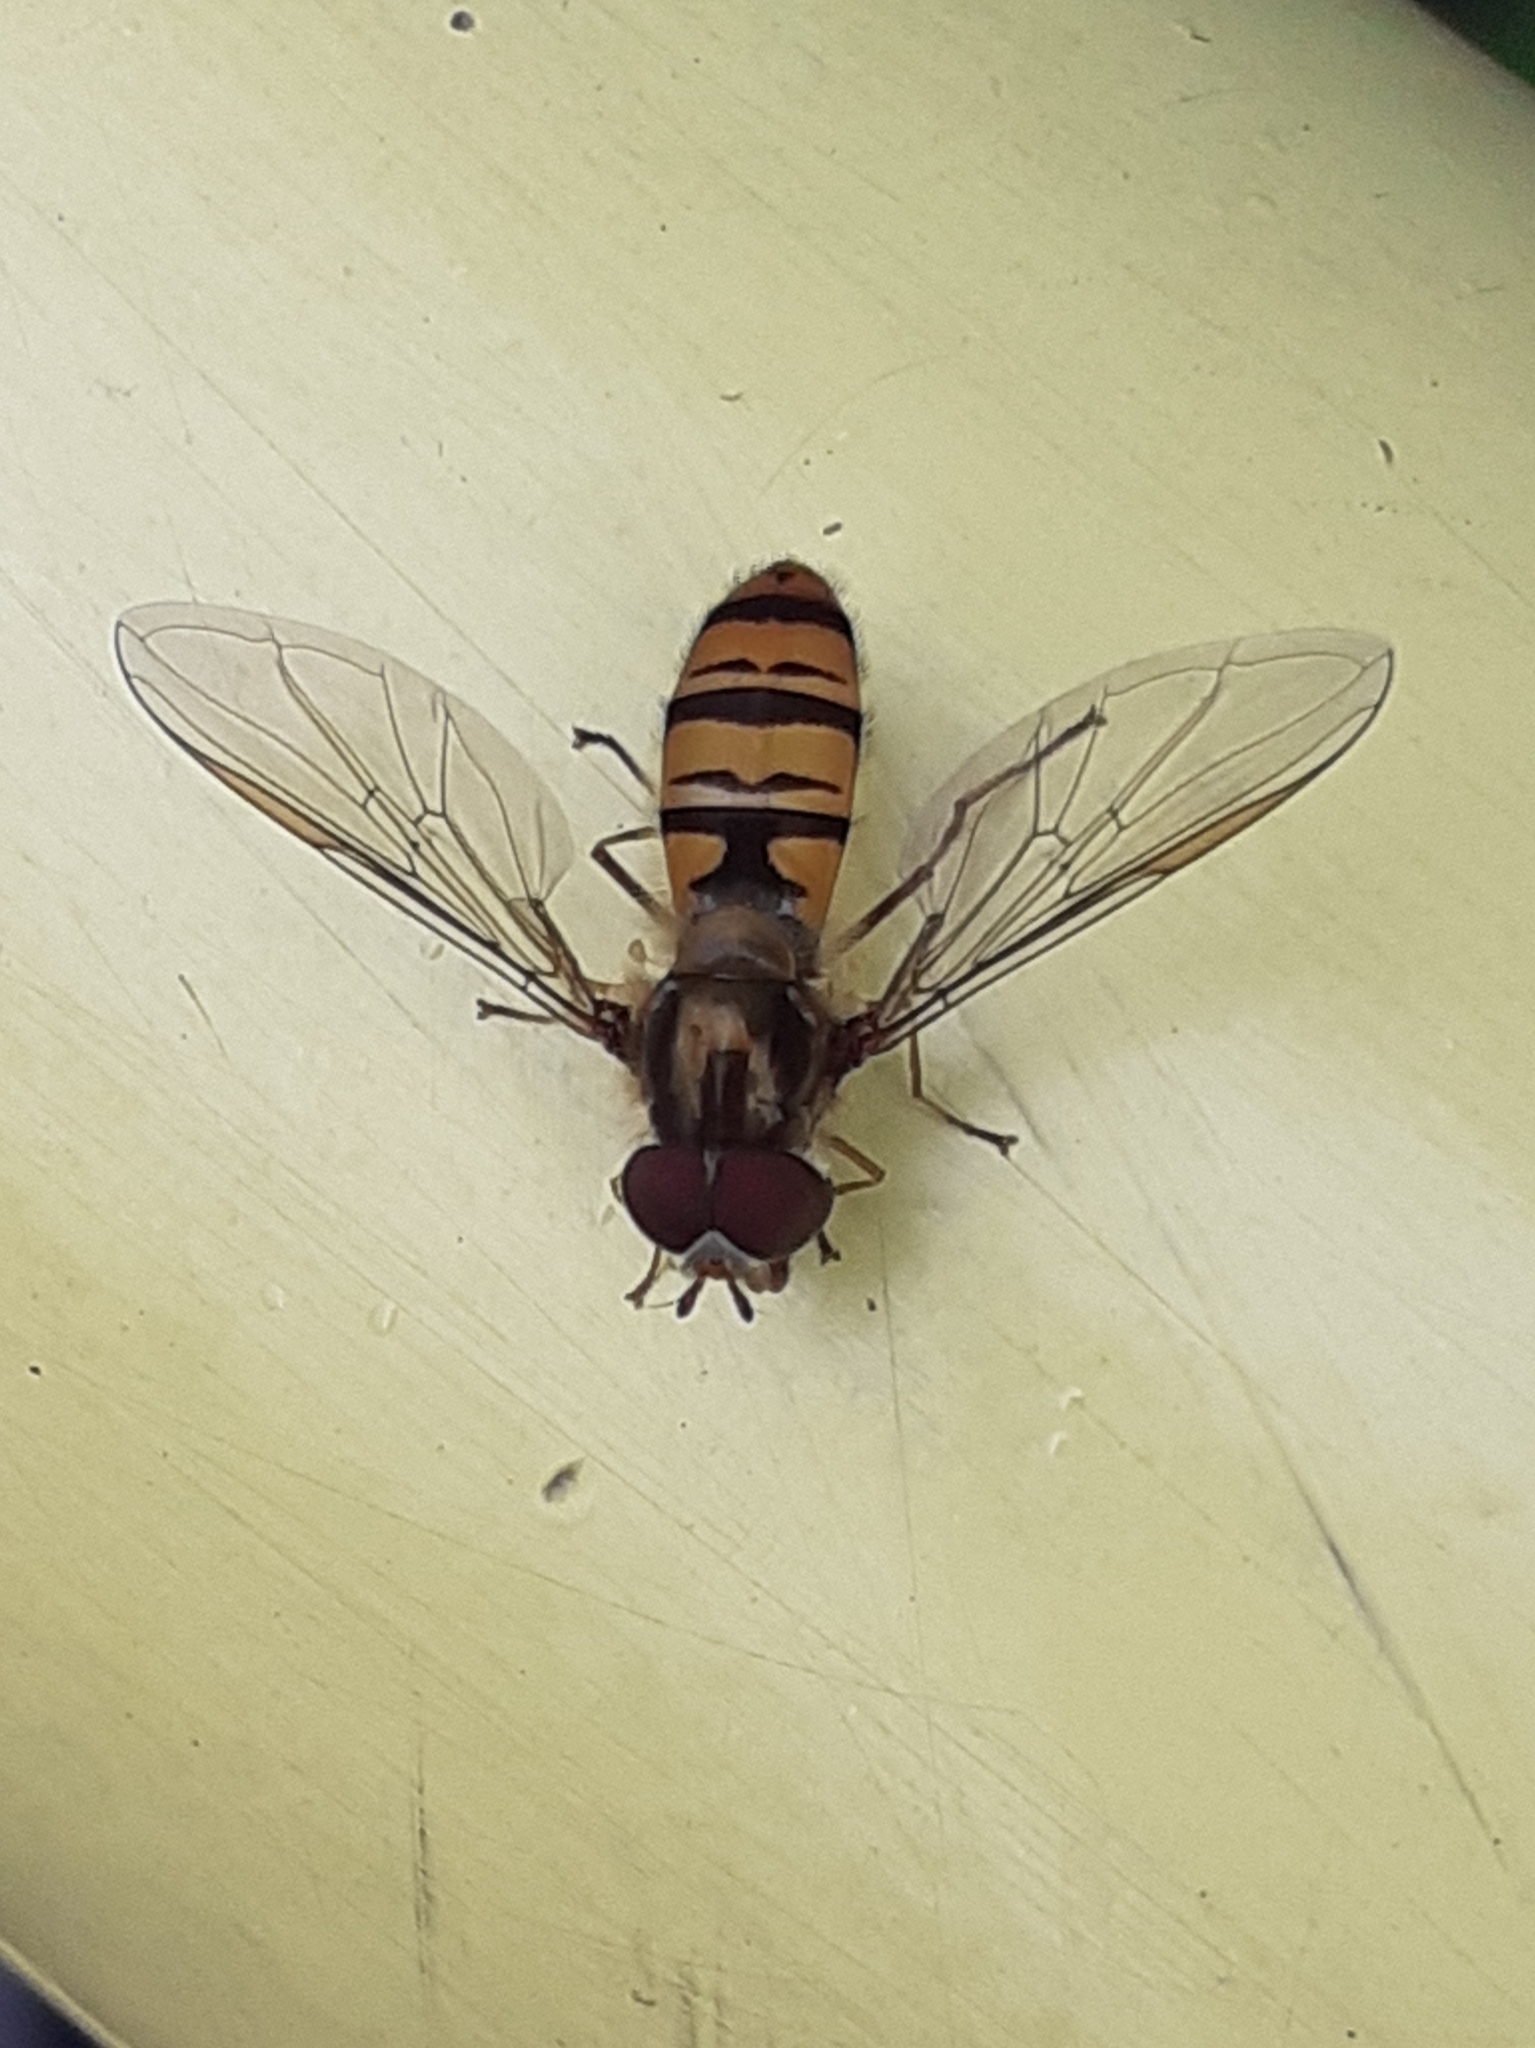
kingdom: Animalia
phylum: Arthropoda
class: Insecta
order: Diptera
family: Syrphidae
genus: Episyrphus
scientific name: Episyrphus balteatus
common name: Marmalade hoverfly
